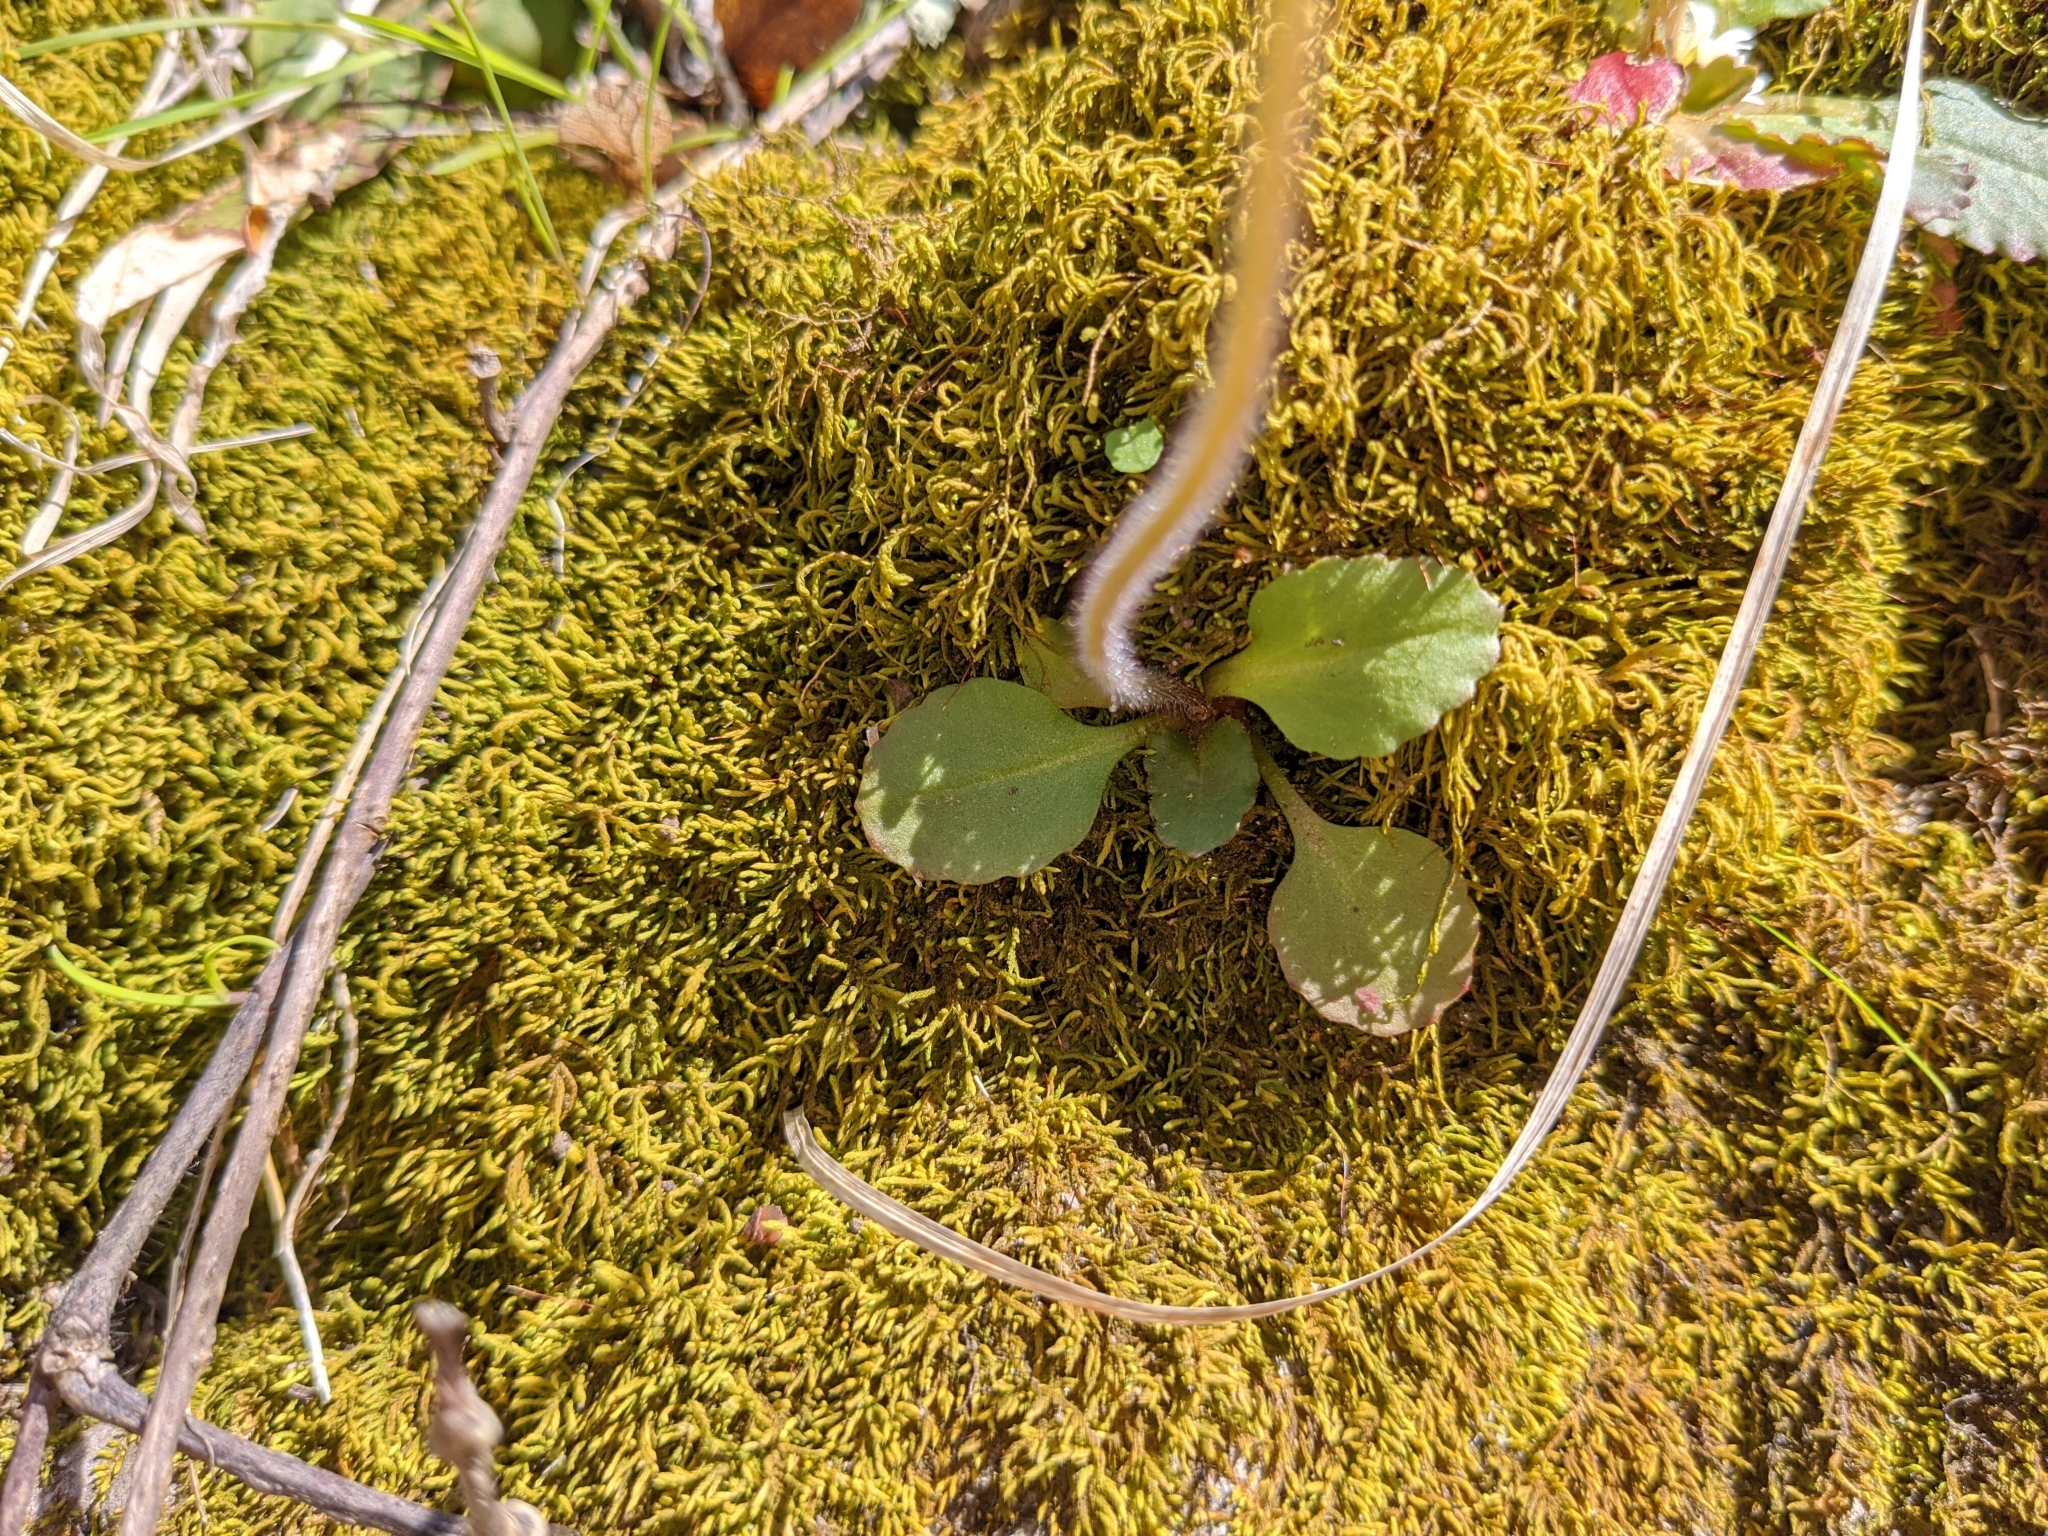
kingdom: Plantae
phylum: Tracheophyta
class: Magnoliopsida
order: Saxifragales
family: Saxifragaceae
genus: Micranthes
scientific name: Micranthes virginiensis
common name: Early saxifrage
